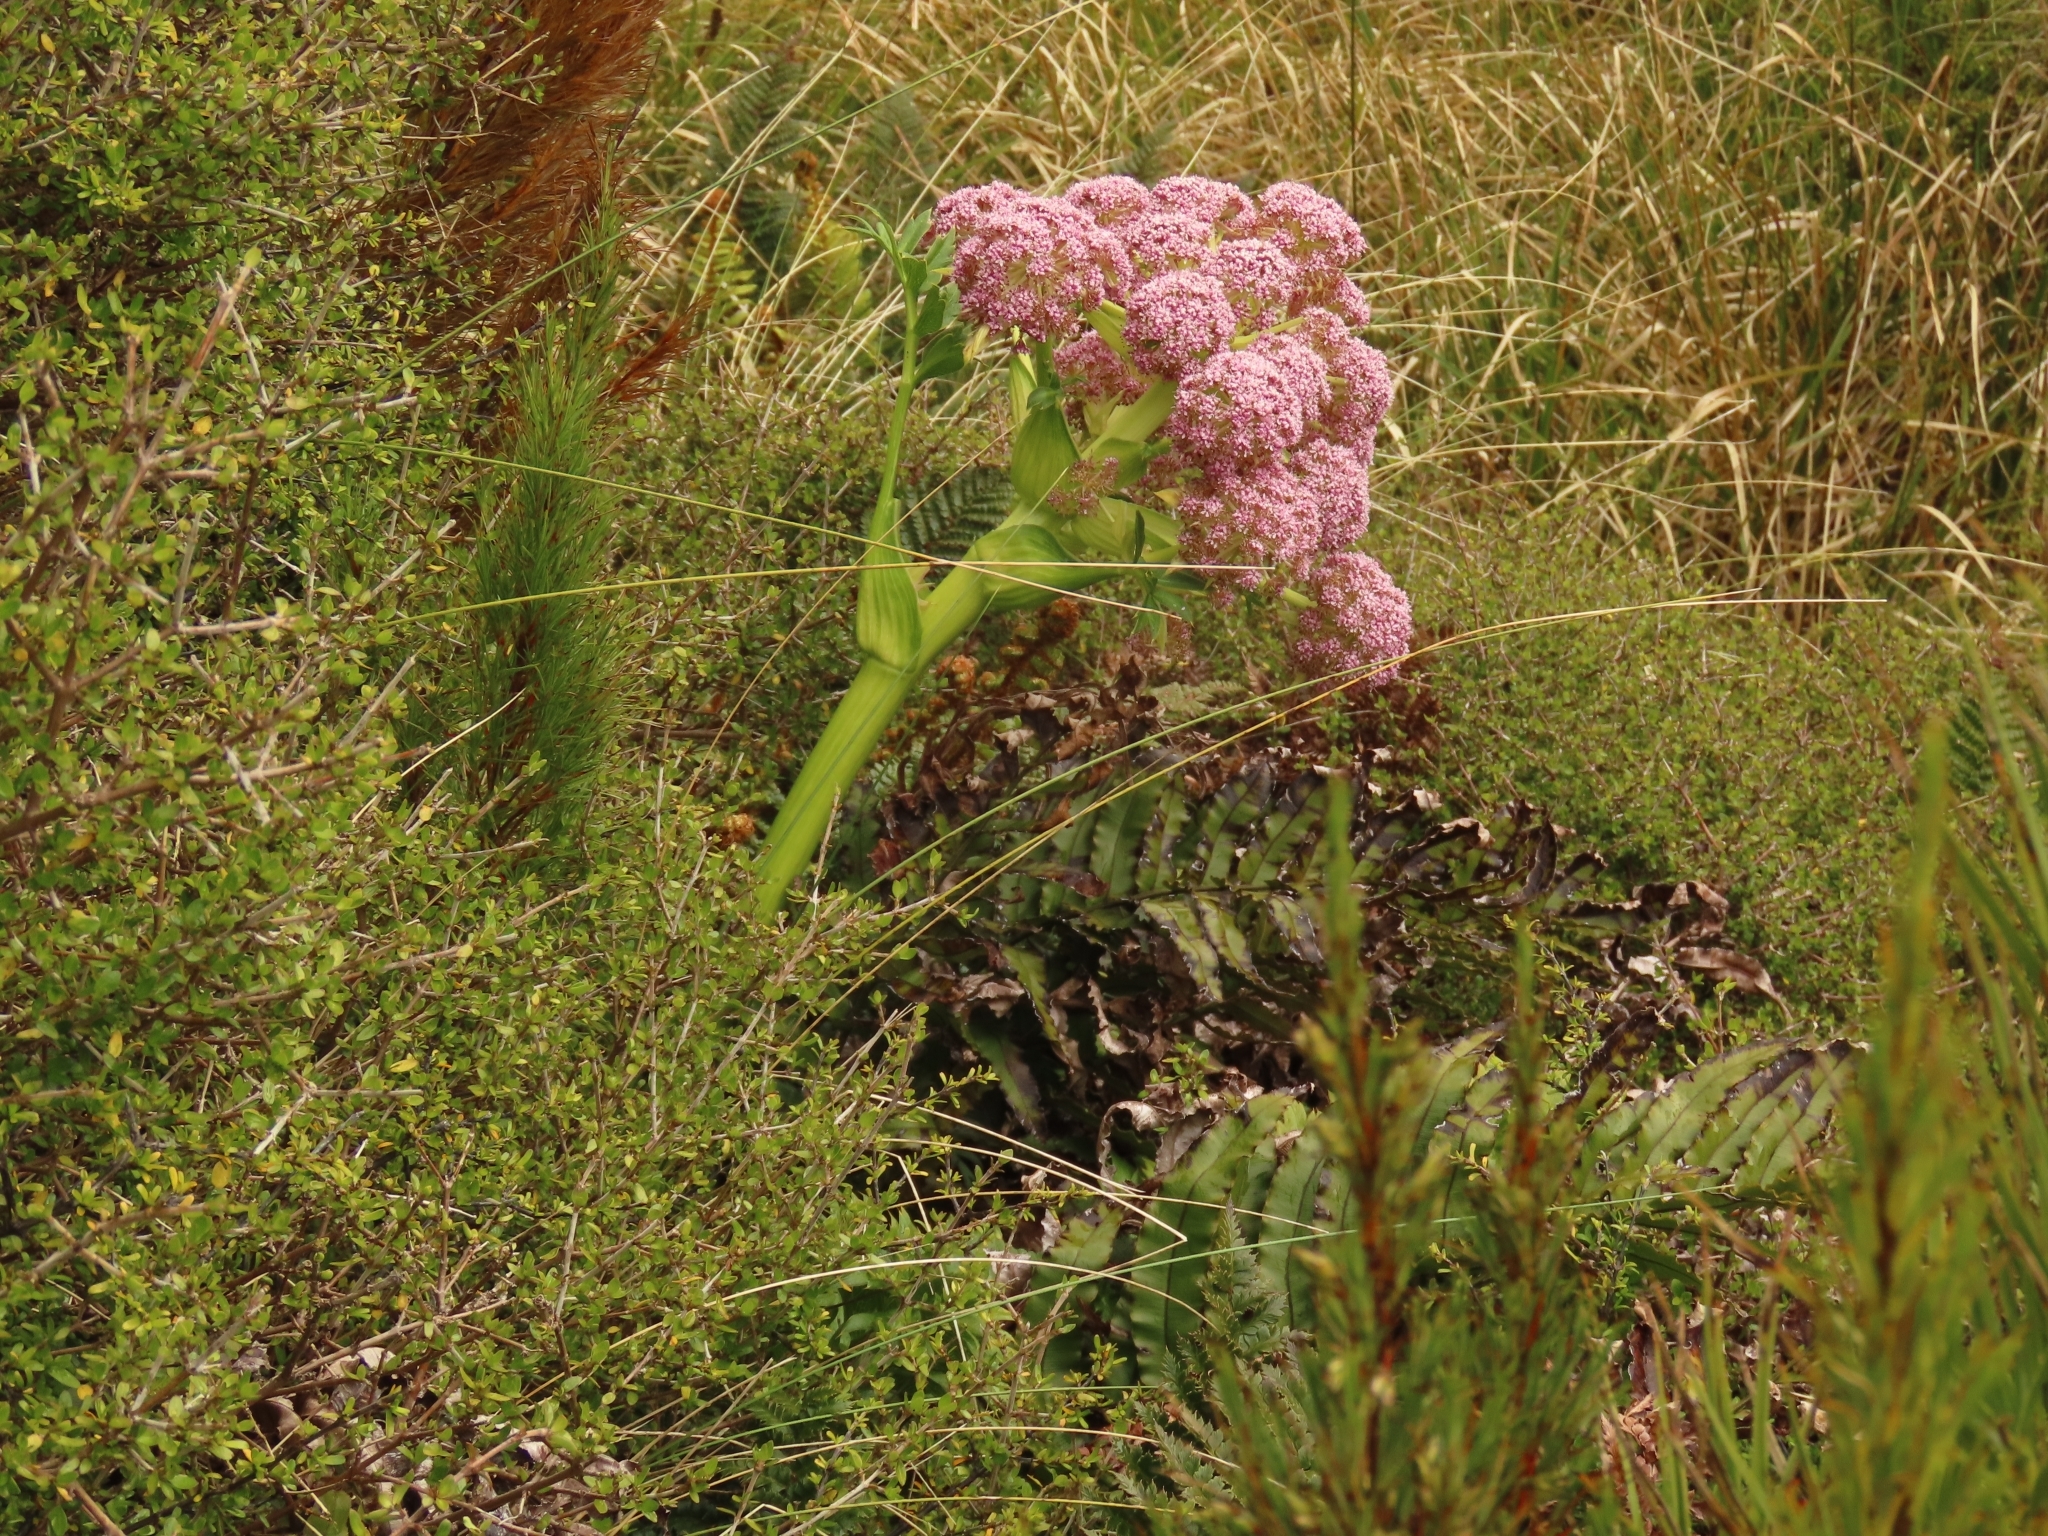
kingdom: Plantae
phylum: Tracheophyta
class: Magnoliopsida
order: Apiales
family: Apiaceae
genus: Anisotome
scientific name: Anisotome latifolia
